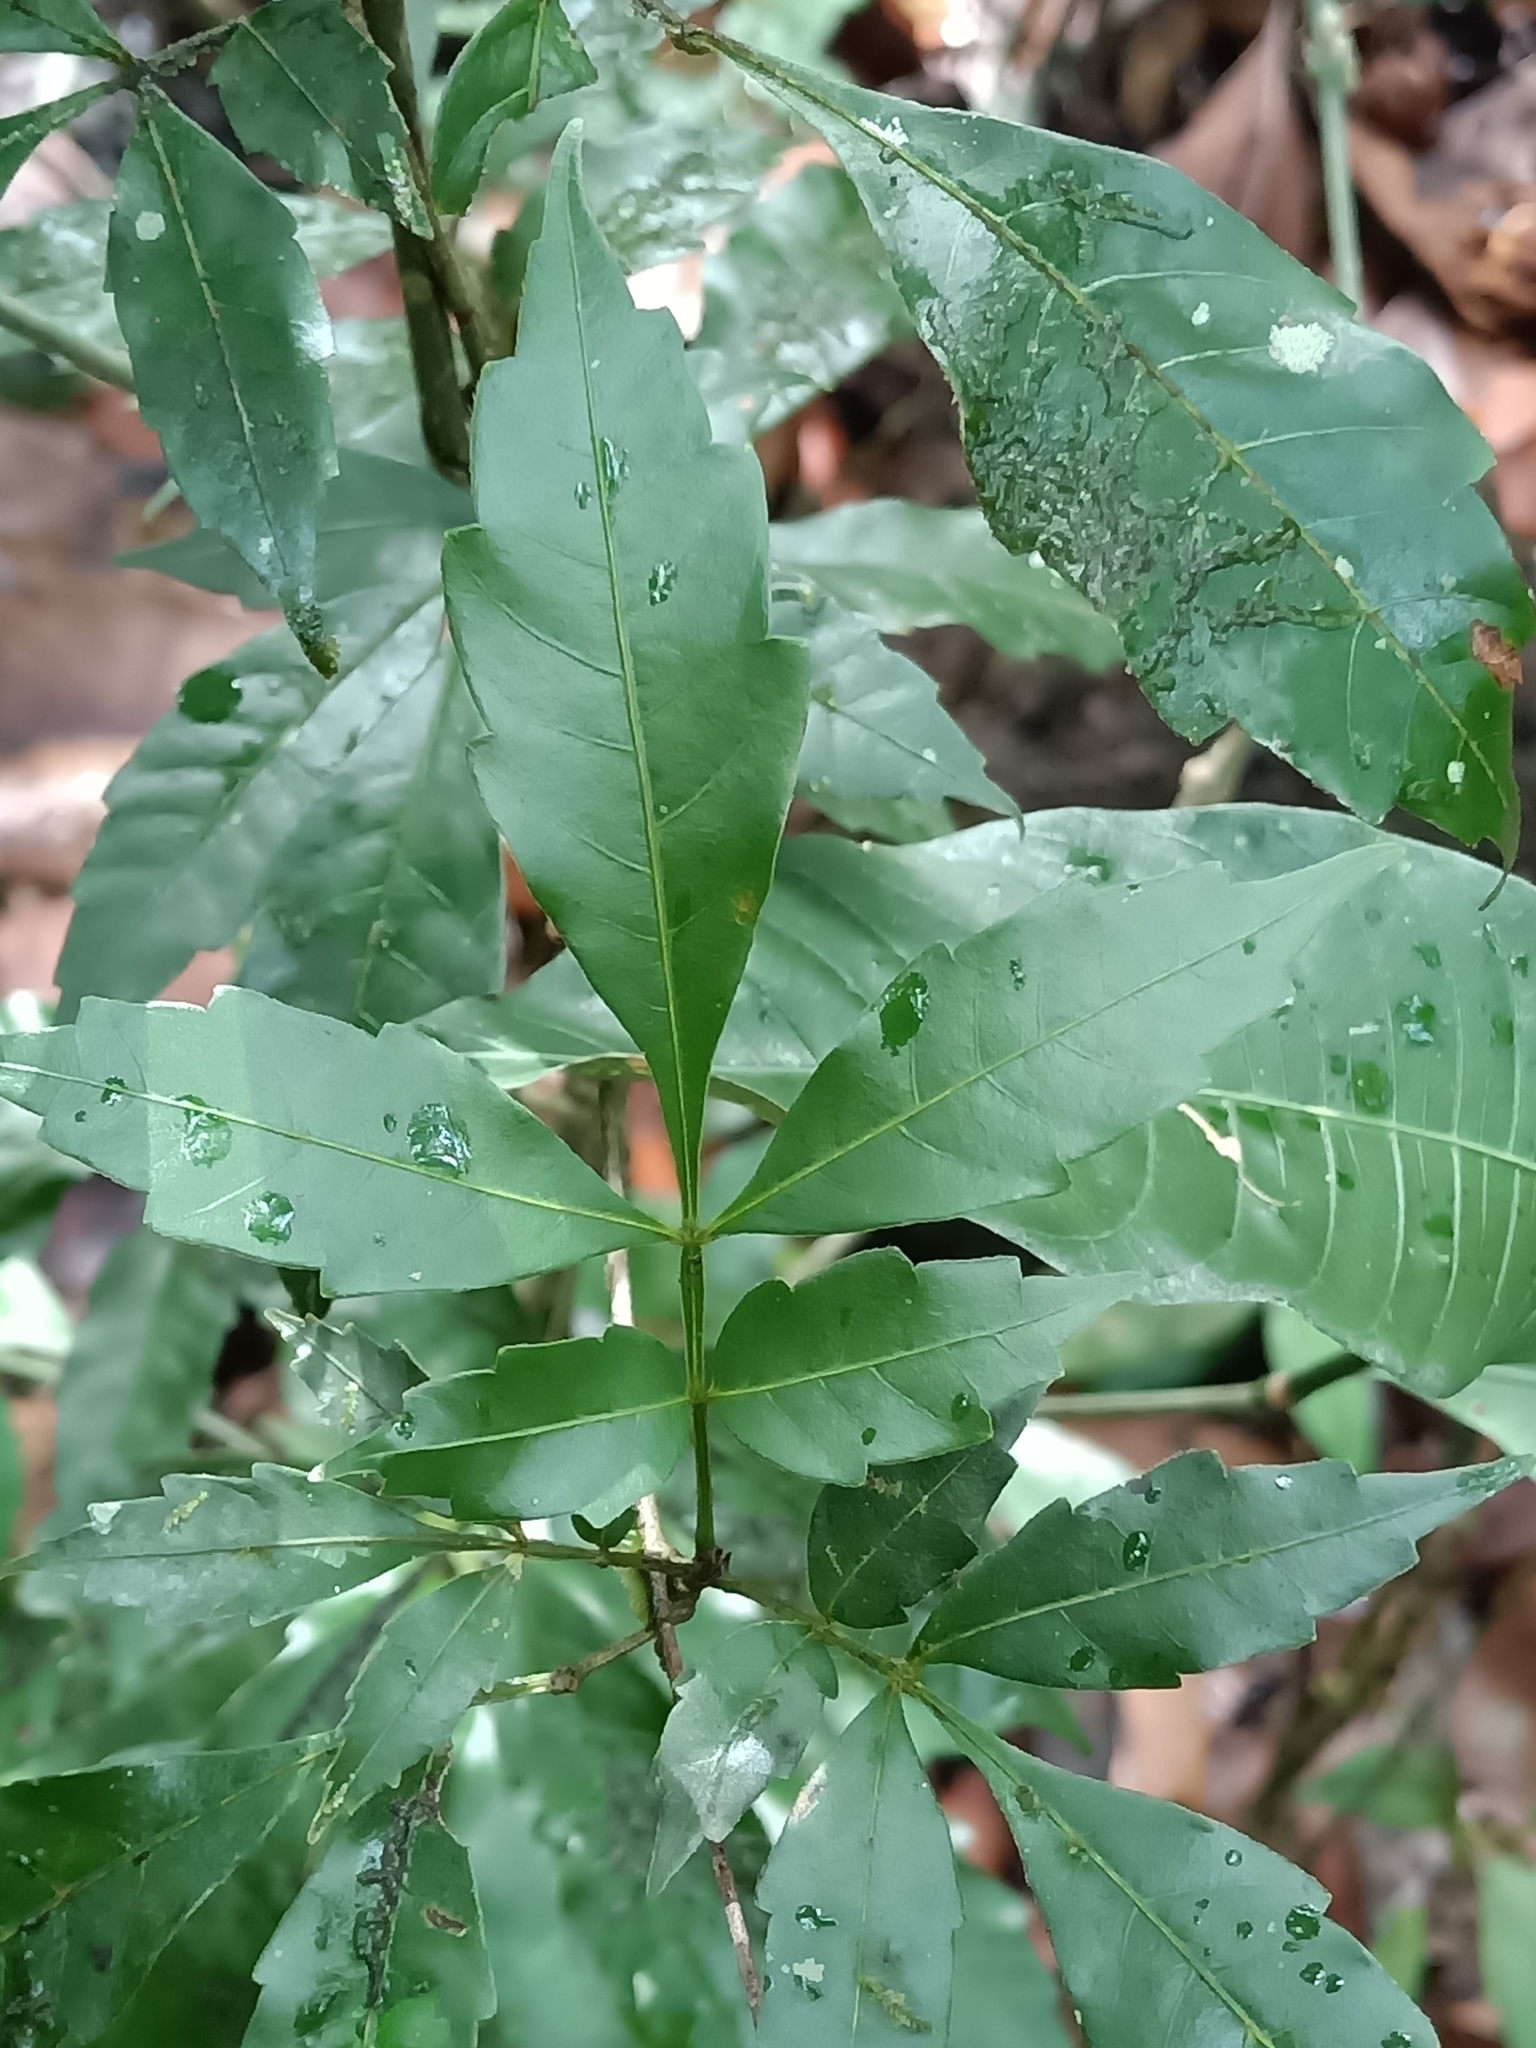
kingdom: Plantae
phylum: Tracheophyta
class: Magnoliopsida
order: Sapindales
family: Sapindaceae
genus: Paullinia
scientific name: Paullinia
